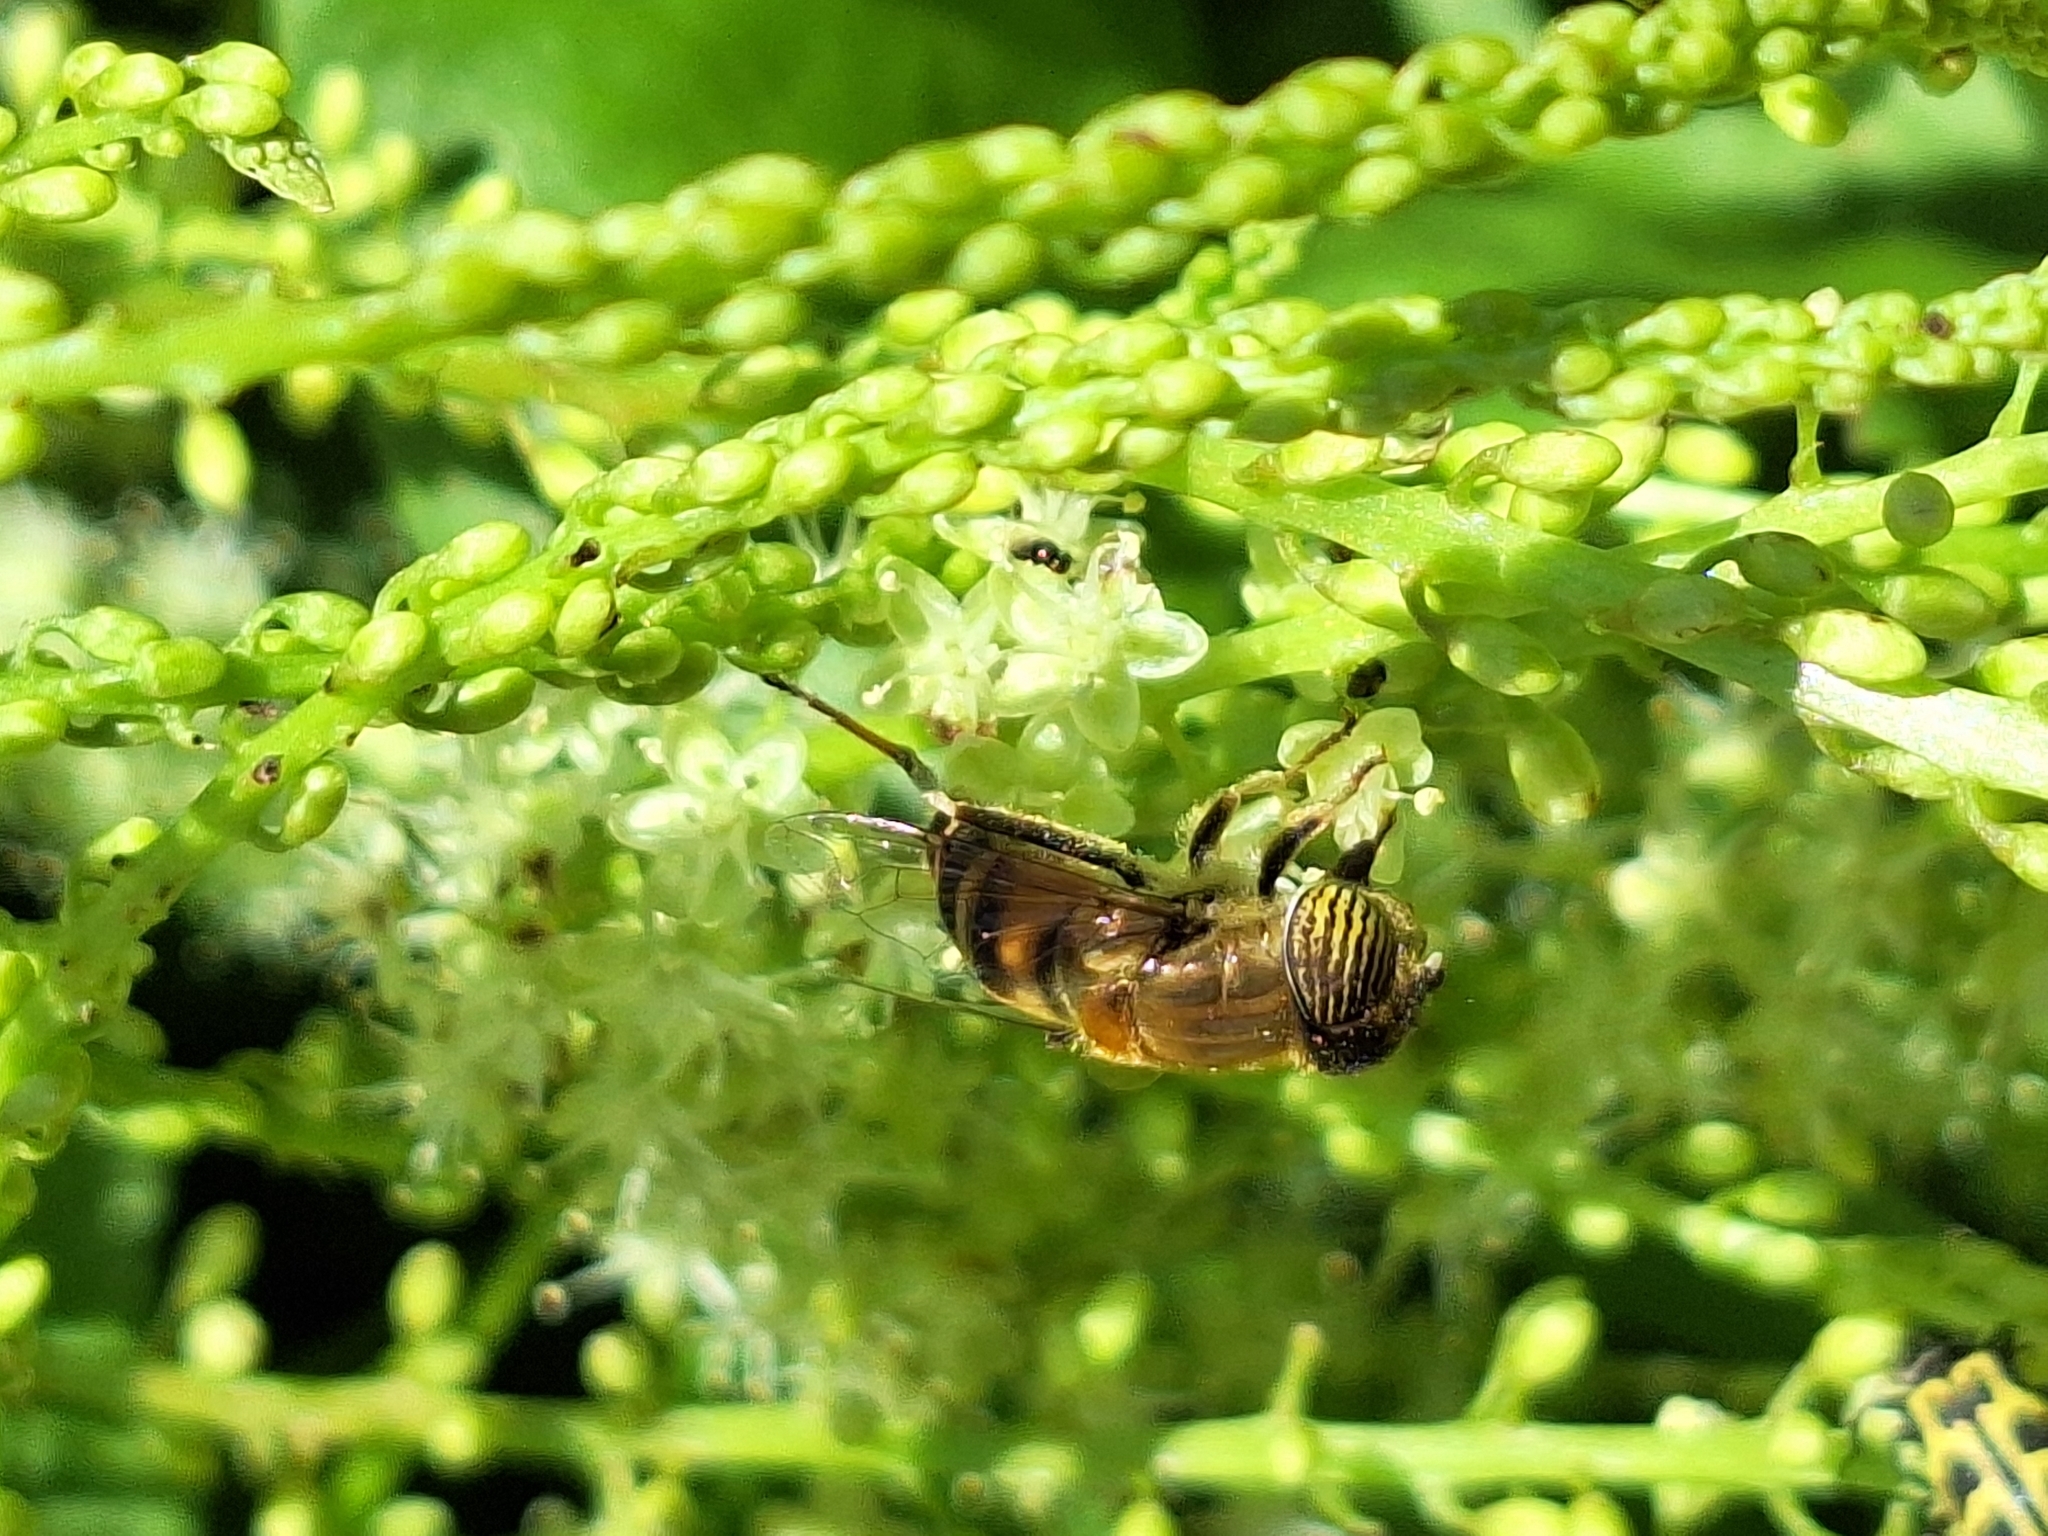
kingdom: Animalia
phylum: Arthropoda
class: Insecta
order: Diptera
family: Syrphidae
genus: Eristalinus
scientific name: Eristalinus taeniops
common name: Syrphid fly
